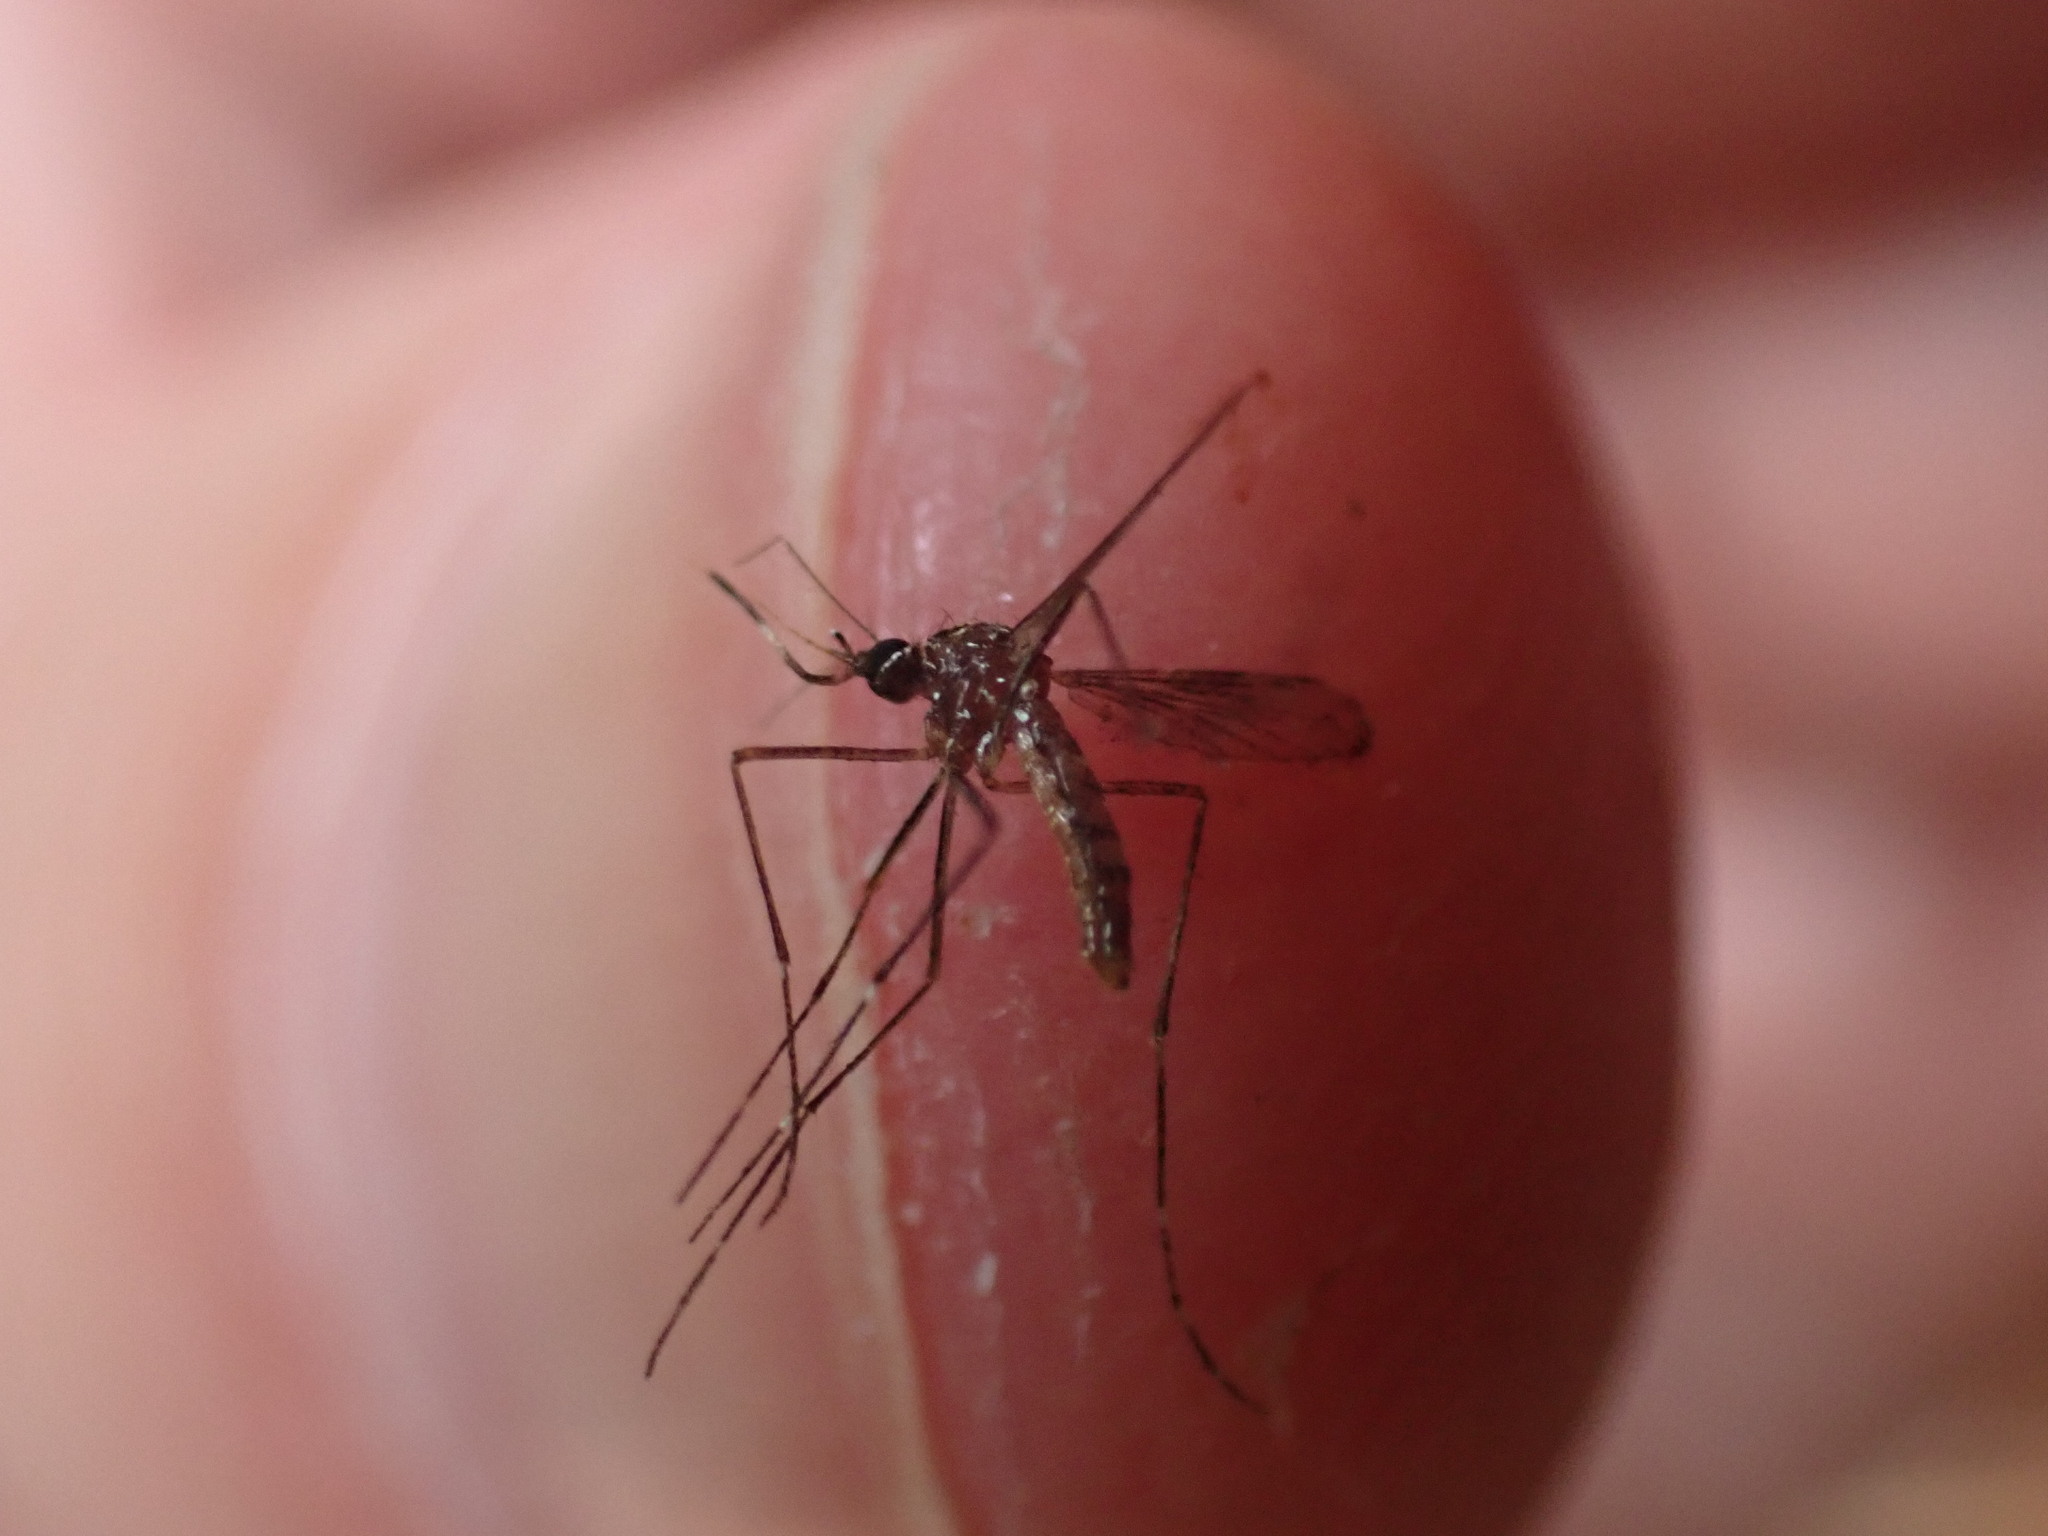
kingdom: Animalia
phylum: Arthropoda
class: Insecta
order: Diptera
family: Culicidae
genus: Aedes
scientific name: Aedes notoscriptus
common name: Australian backyard mosquito
